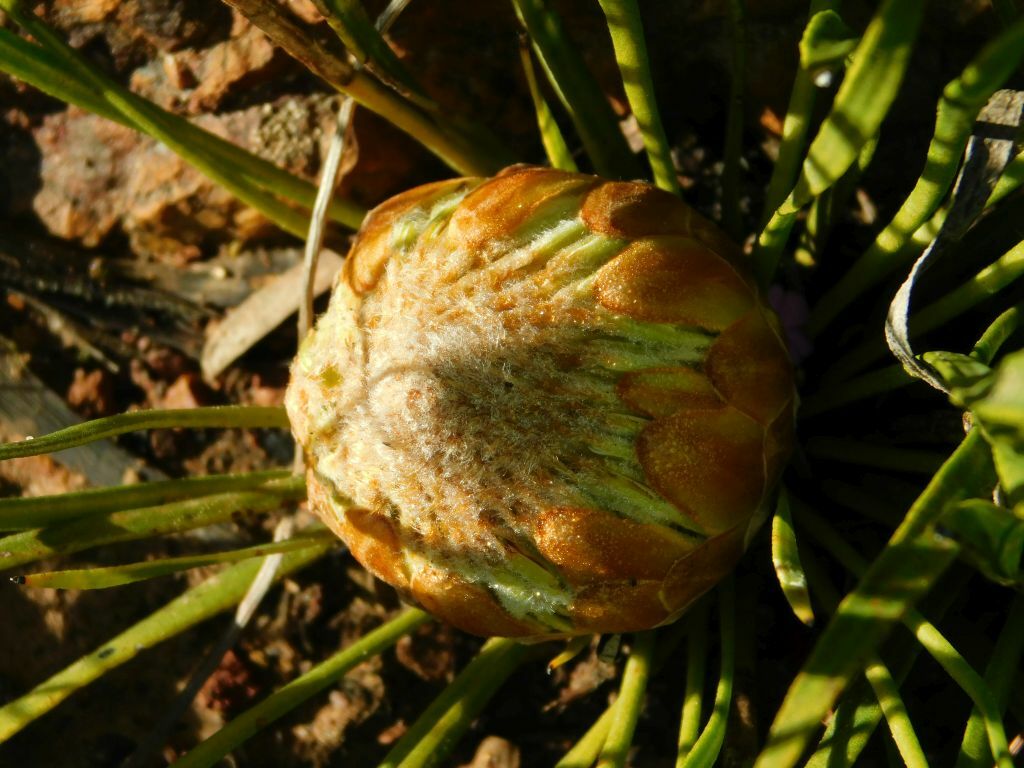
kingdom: Plantae
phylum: Tracheophyta
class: Magnoliopsida
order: Proteales
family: Proteaceae
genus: Protea
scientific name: Protea scabra
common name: Sandpaper-leaf sugarbush
